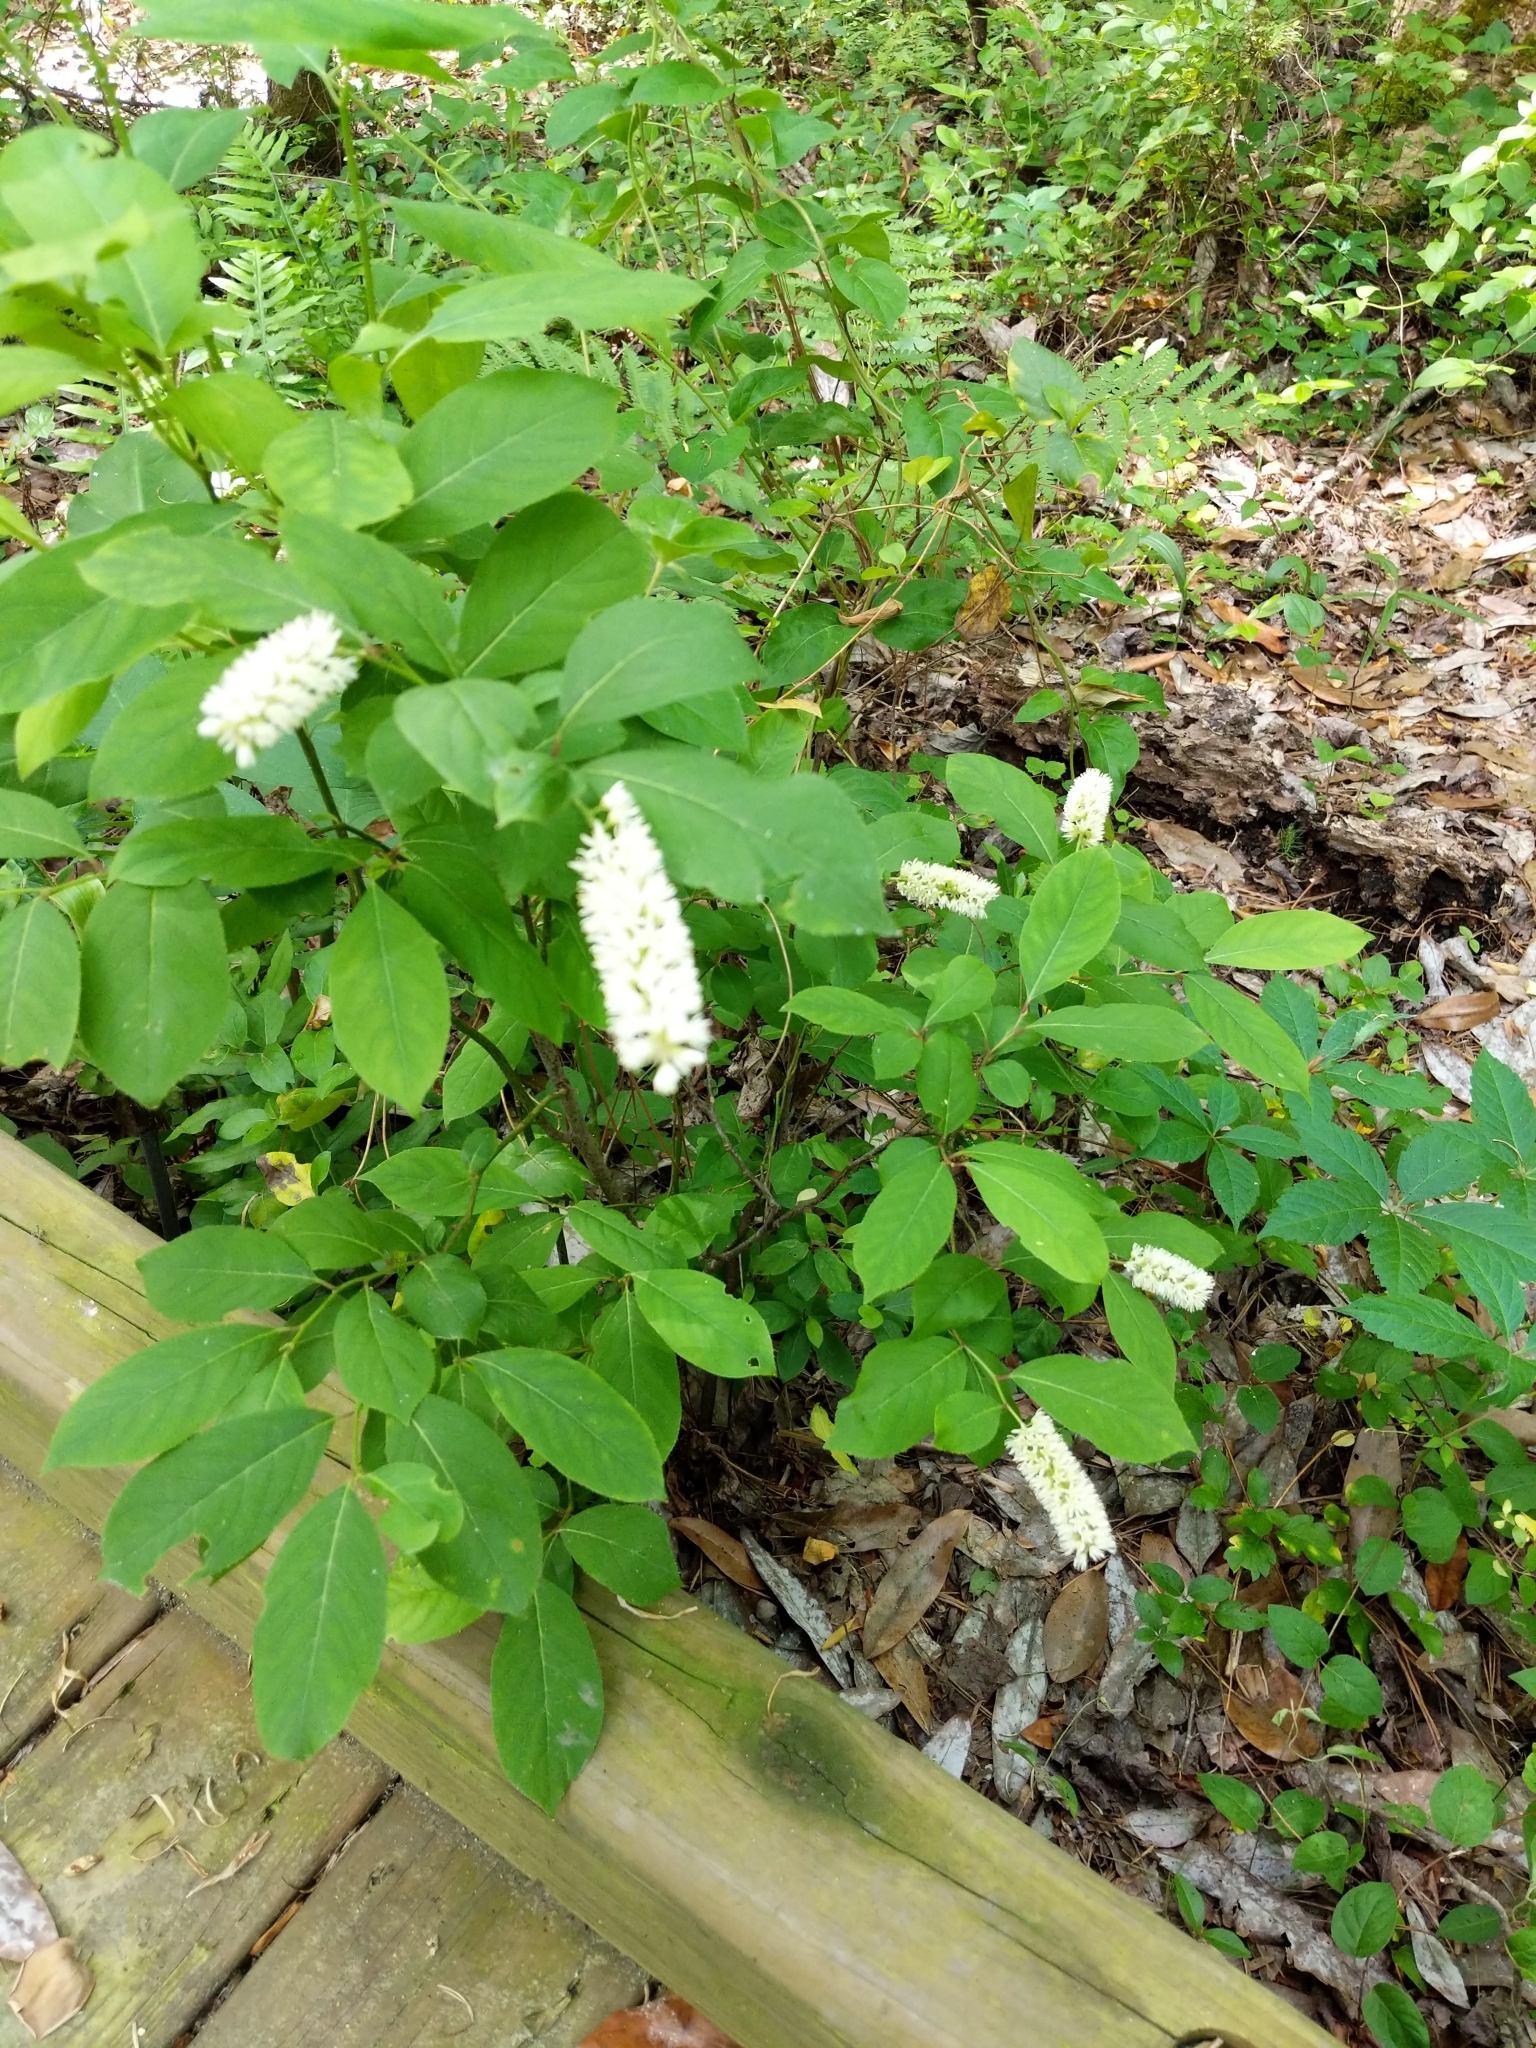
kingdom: Plantae
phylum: Tracheophyta
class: Magnoliopsida
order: Saxifragales
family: Iteaceae
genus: Itea
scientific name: Itea virginica
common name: Sweetspire
